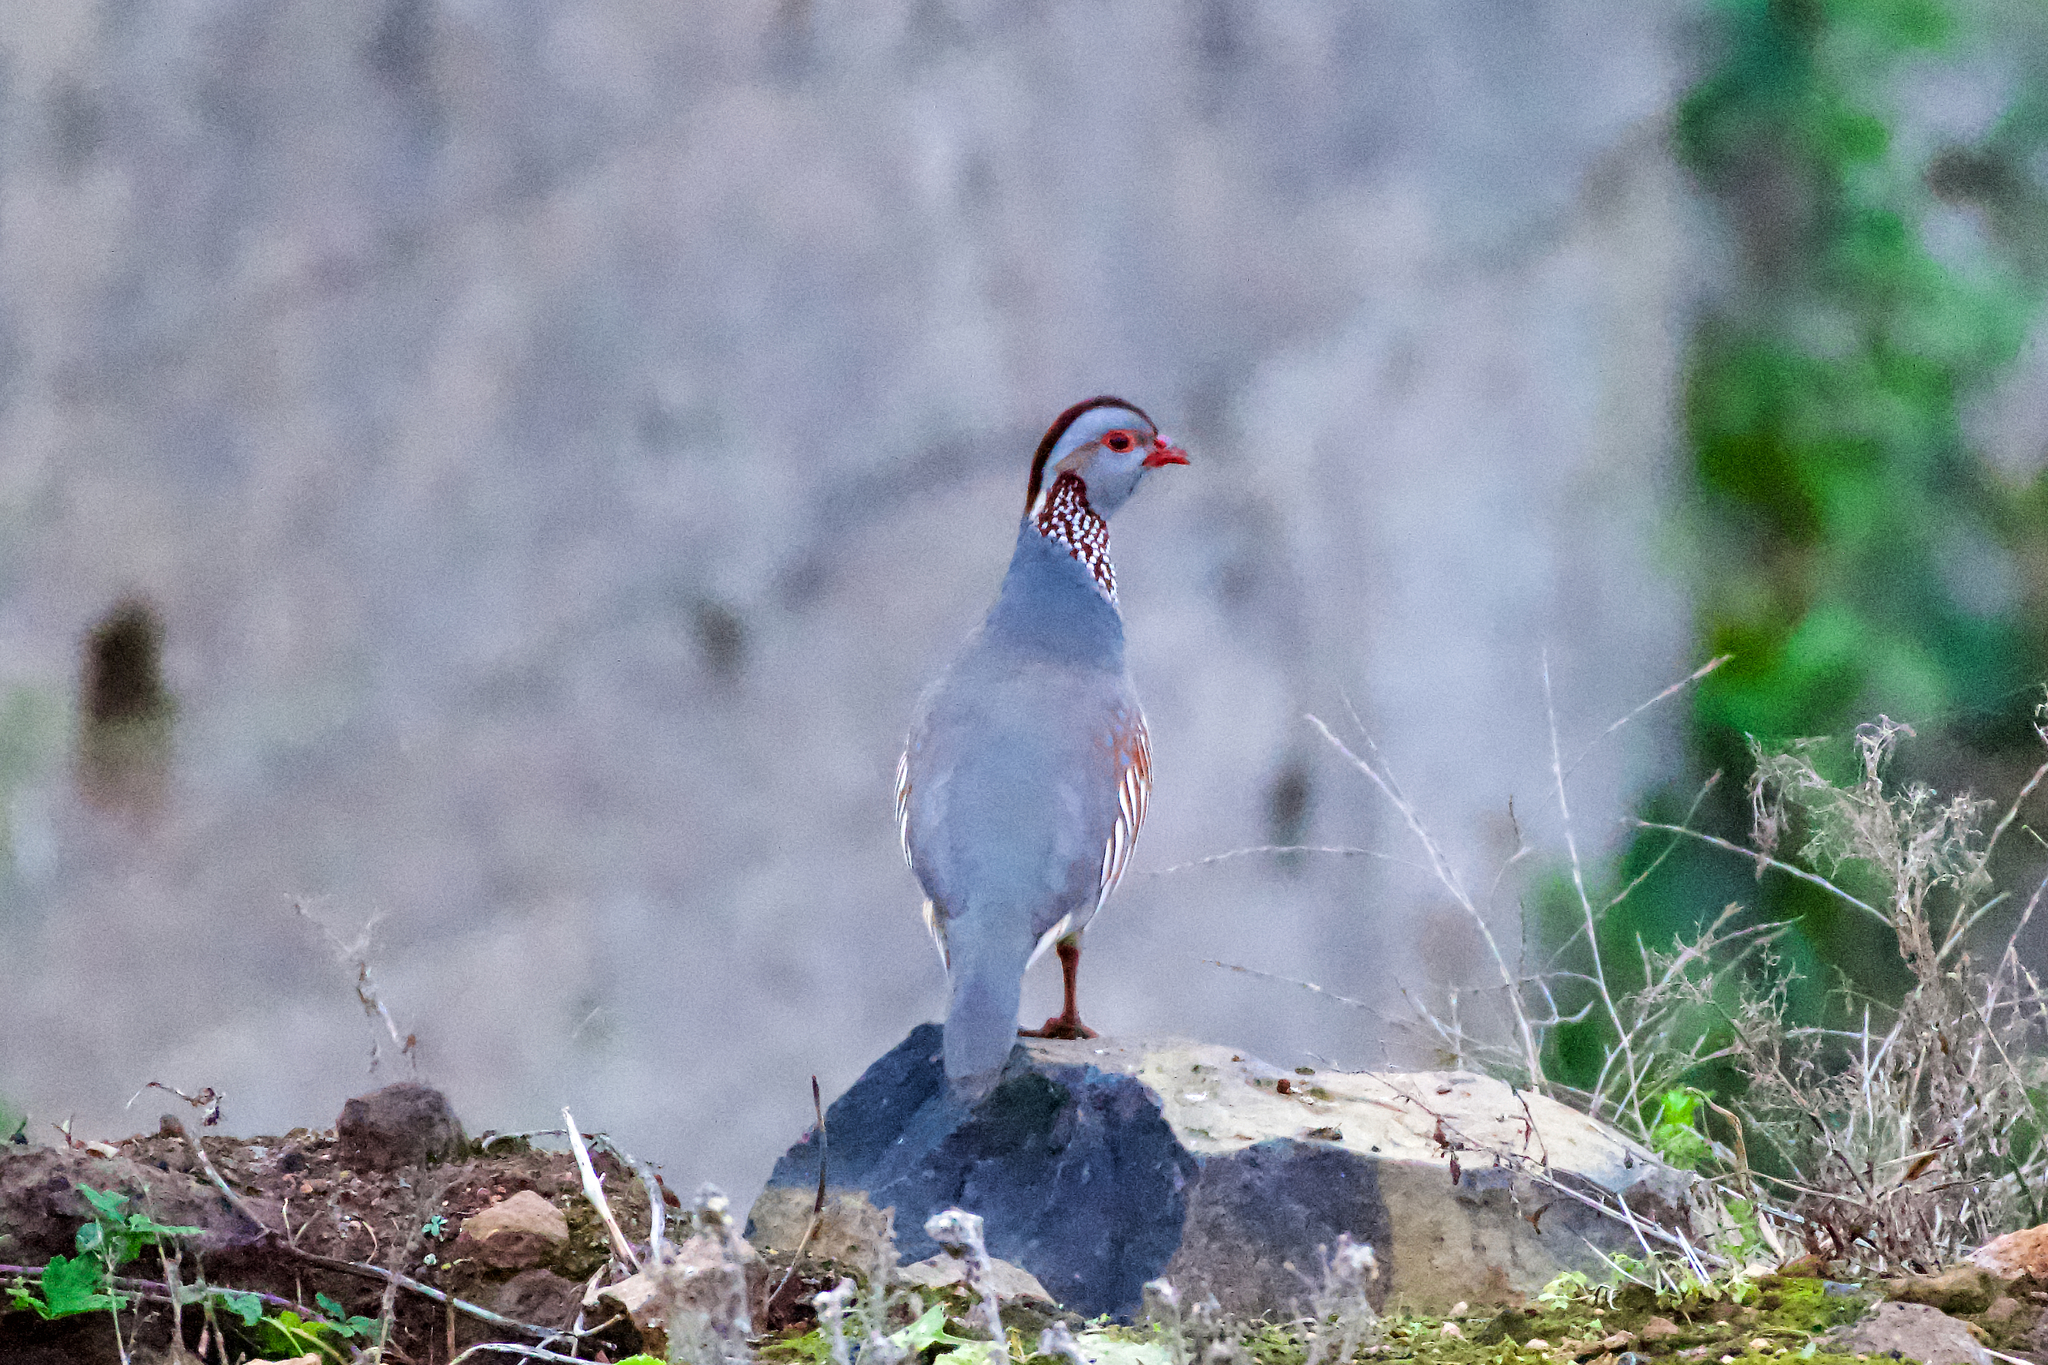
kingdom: Animalia
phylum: Chordata
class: Aves
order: Galliformes
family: Phasianidae
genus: Alectoris
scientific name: Alectoris barbara
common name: Barbary partridge
